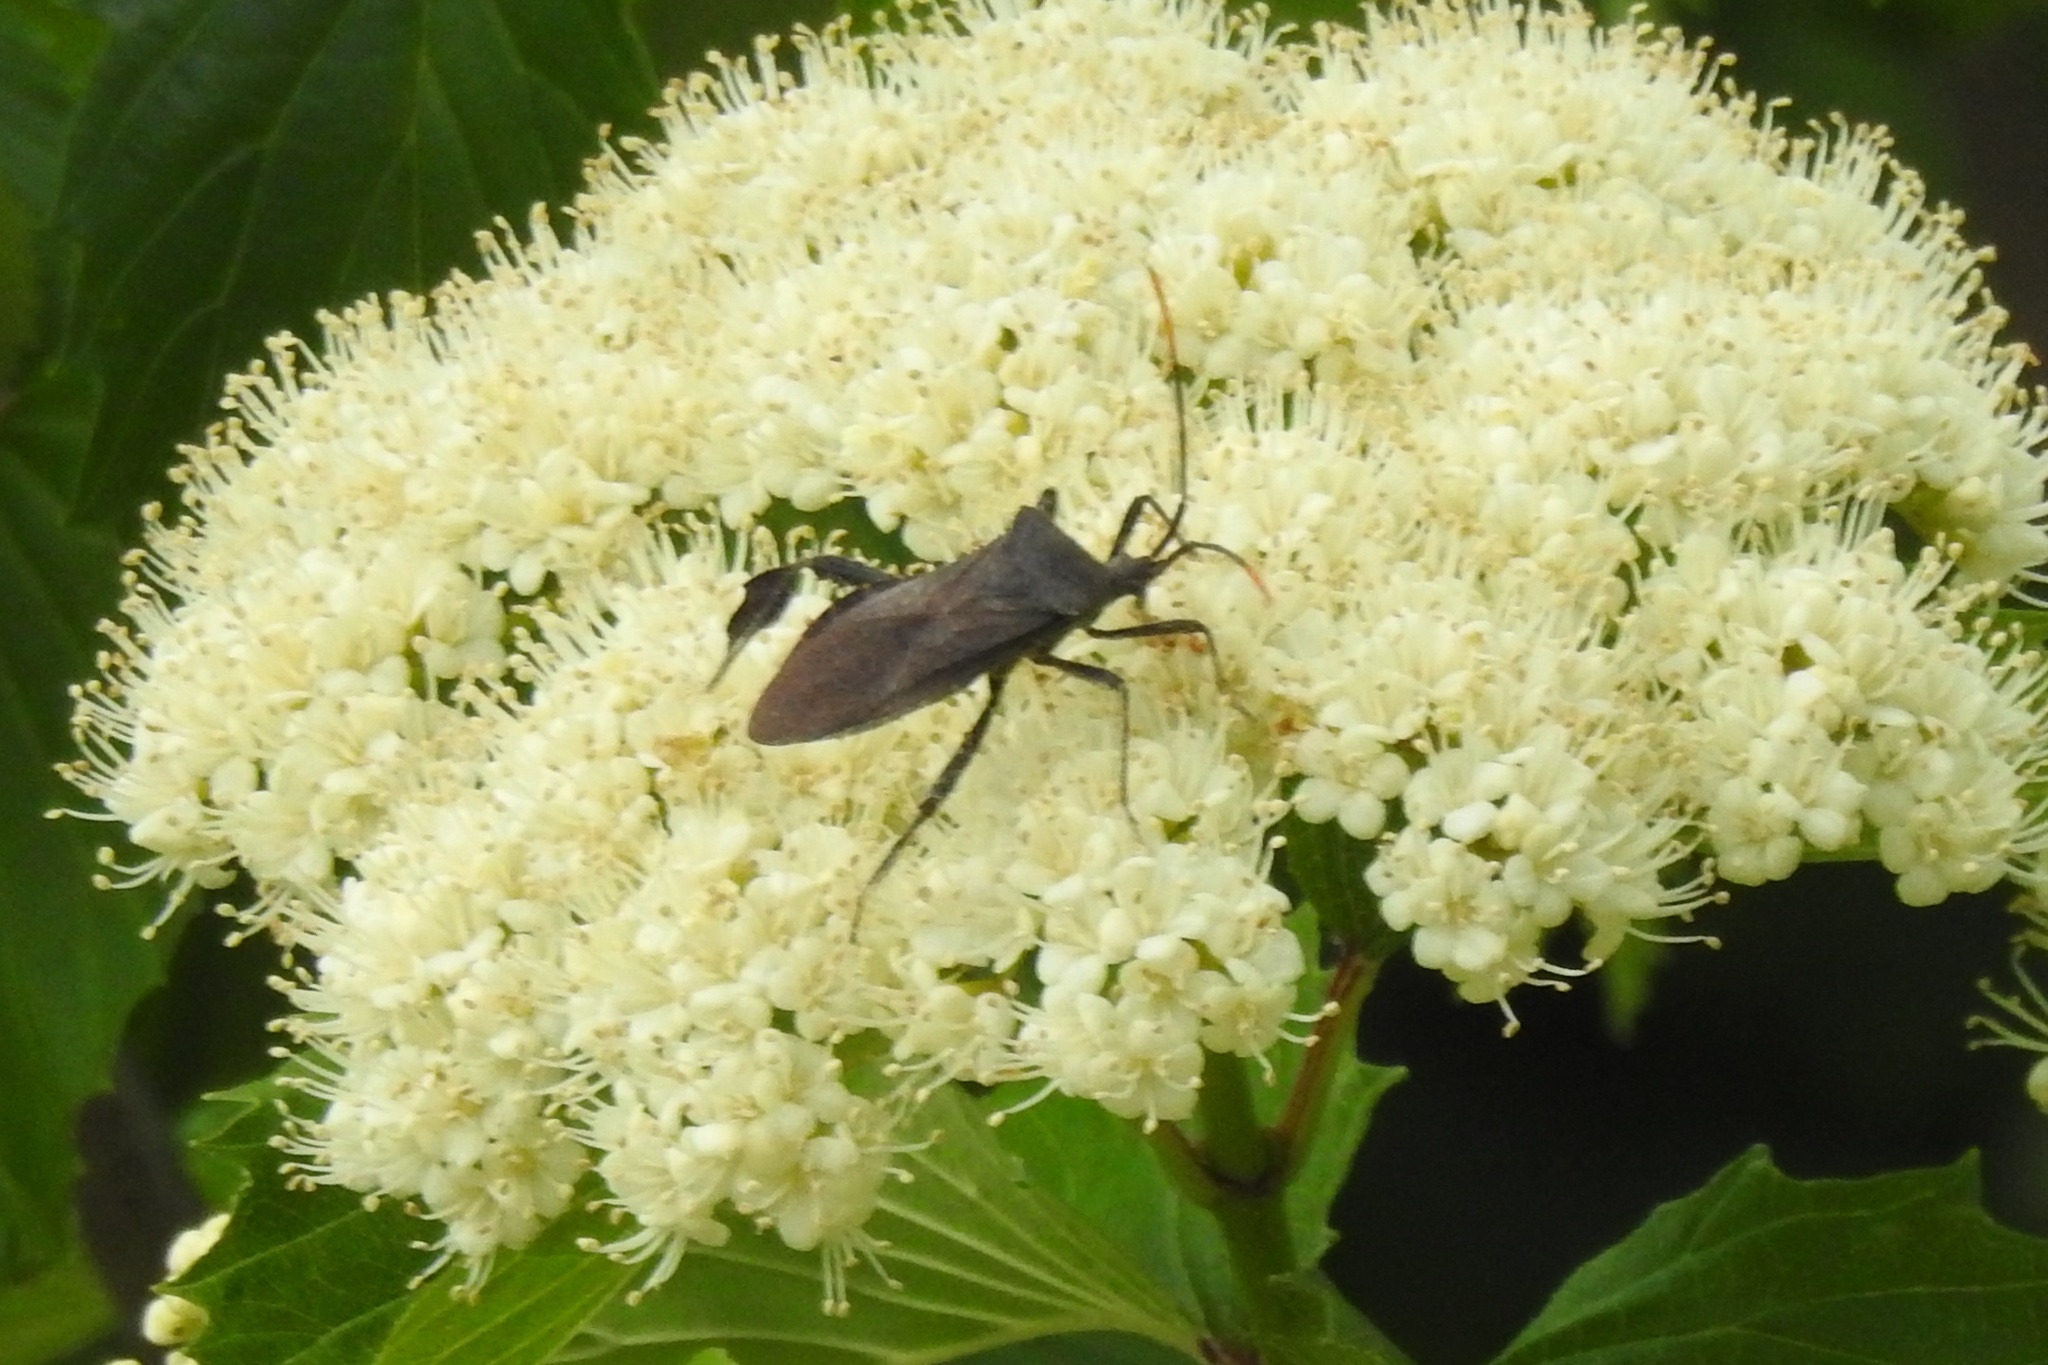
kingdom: Animalia
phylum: Arthropoda
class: Insecta
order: Hemiptera
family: Coreidae
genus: Acanthocephala
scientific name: Acanthocephala terminalis
